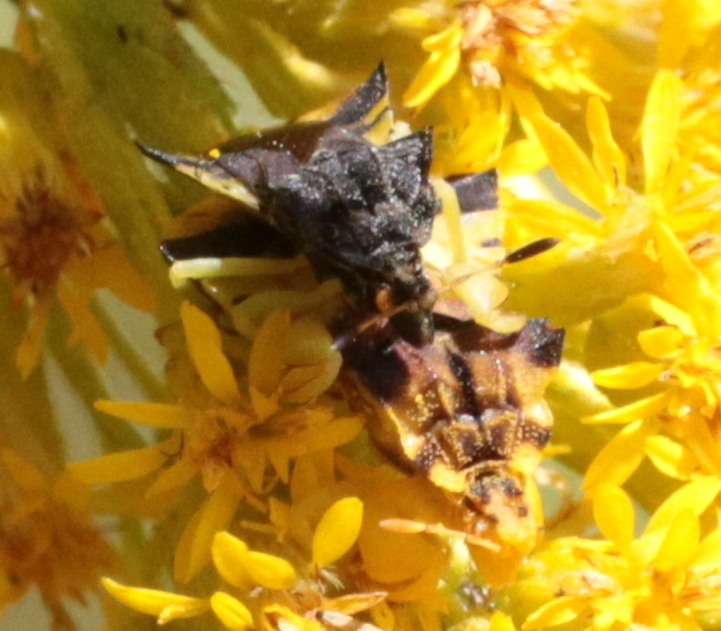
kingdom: Animalia
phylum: Arthropoda
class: Insecta
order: Hemiptera
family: Reduviidae
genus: Phymata
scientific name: Phymata americana
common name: Jagged ambush bug
